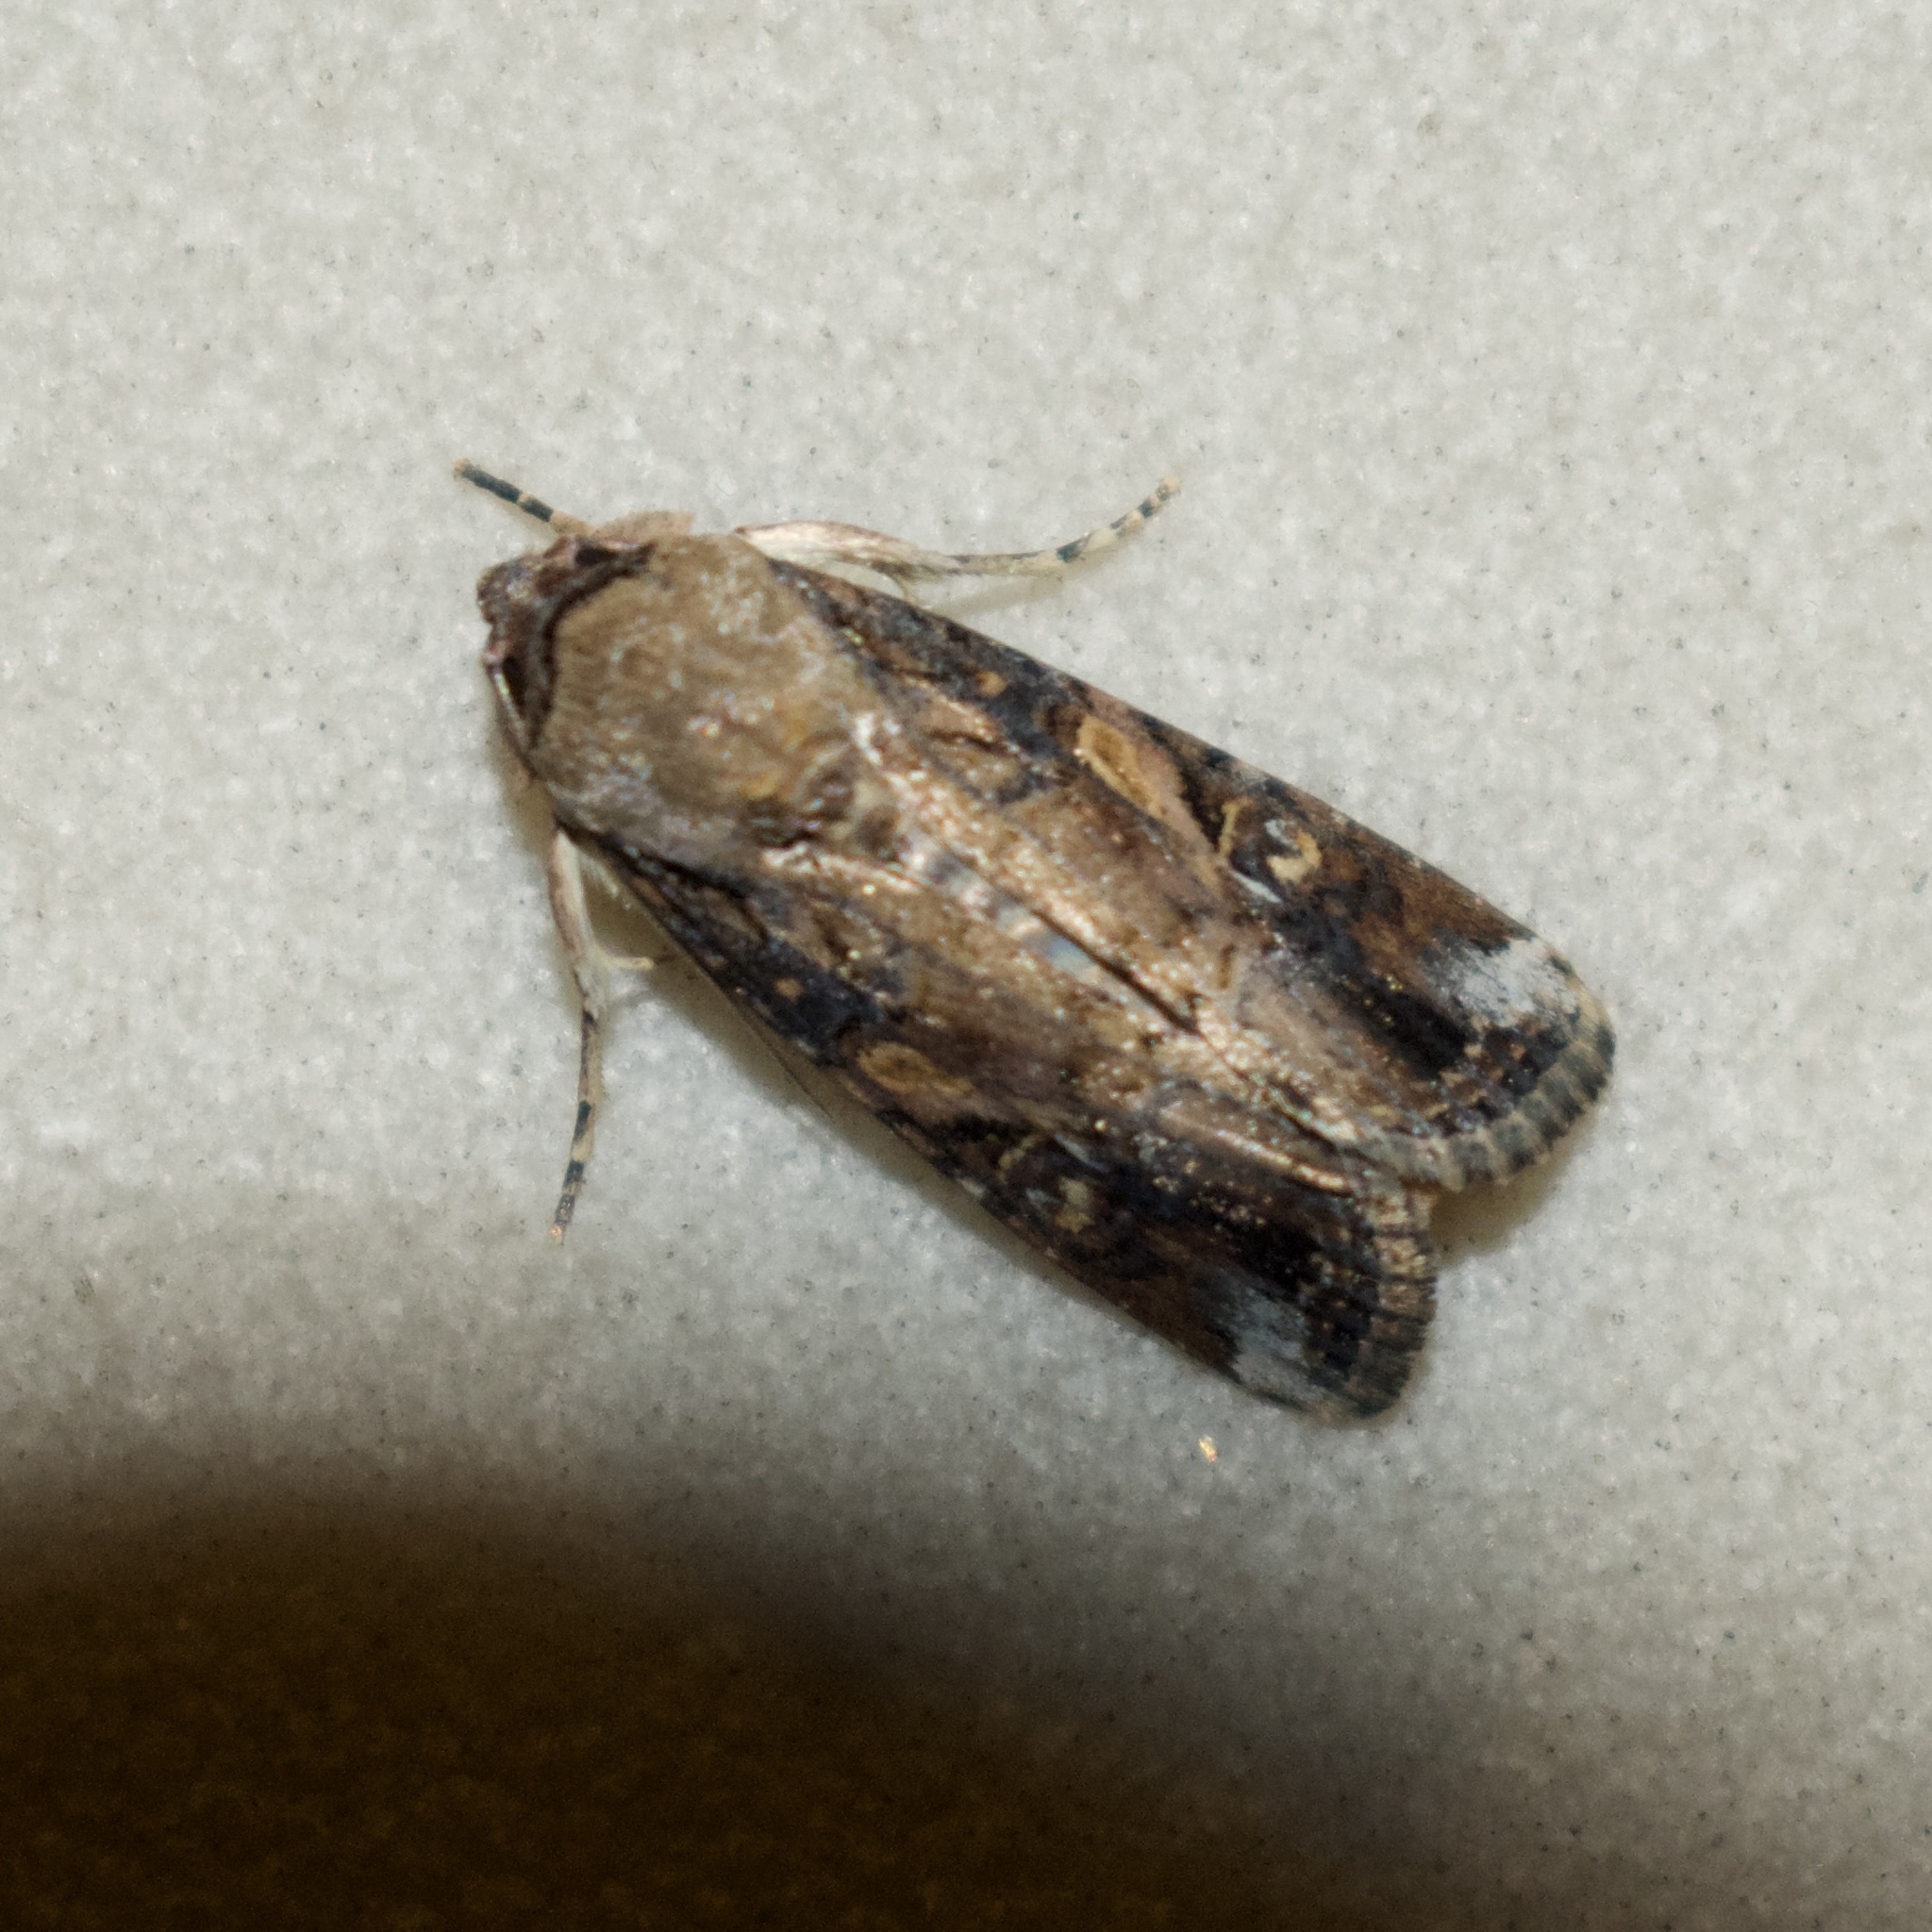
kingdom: Animalia
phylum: Arthropoda
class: Insecta
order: Lepidoptera
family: Noctuidae
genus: Spodoptera
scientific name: Spodoptera frugiperda
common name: Fall armyworm
